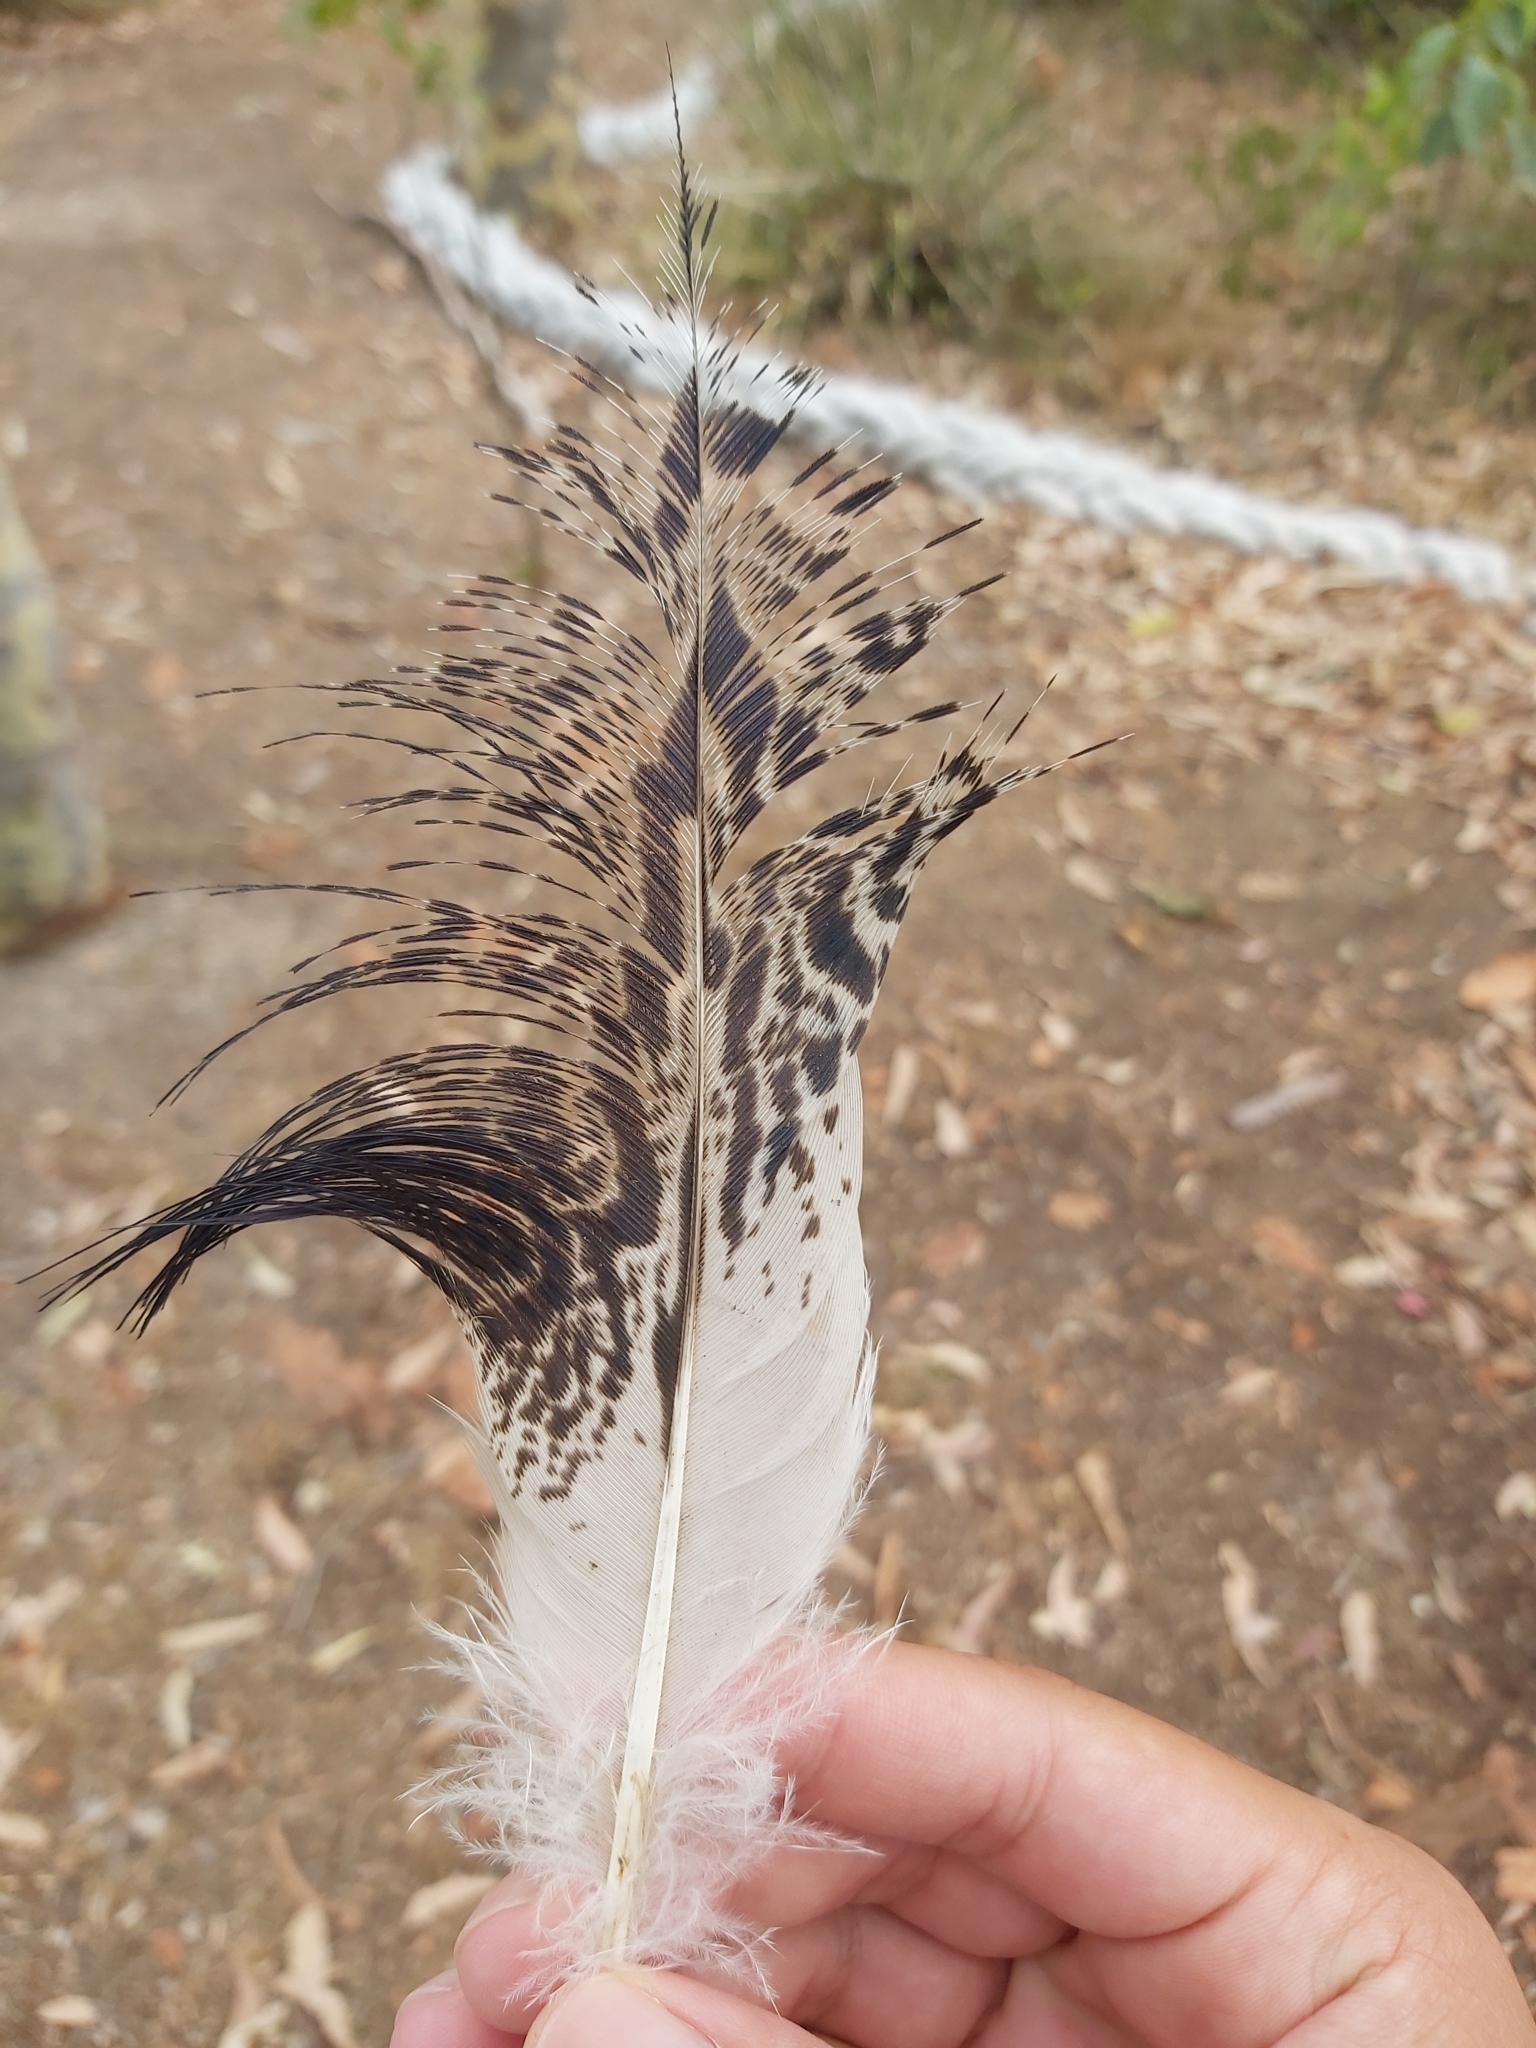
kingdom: Animalia
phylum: Chordata
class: Aves
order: Pelecaniformes
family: Threskiornithidae
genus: Threskiornis
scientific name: Threskiornis molucca
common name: Australian white ibis
